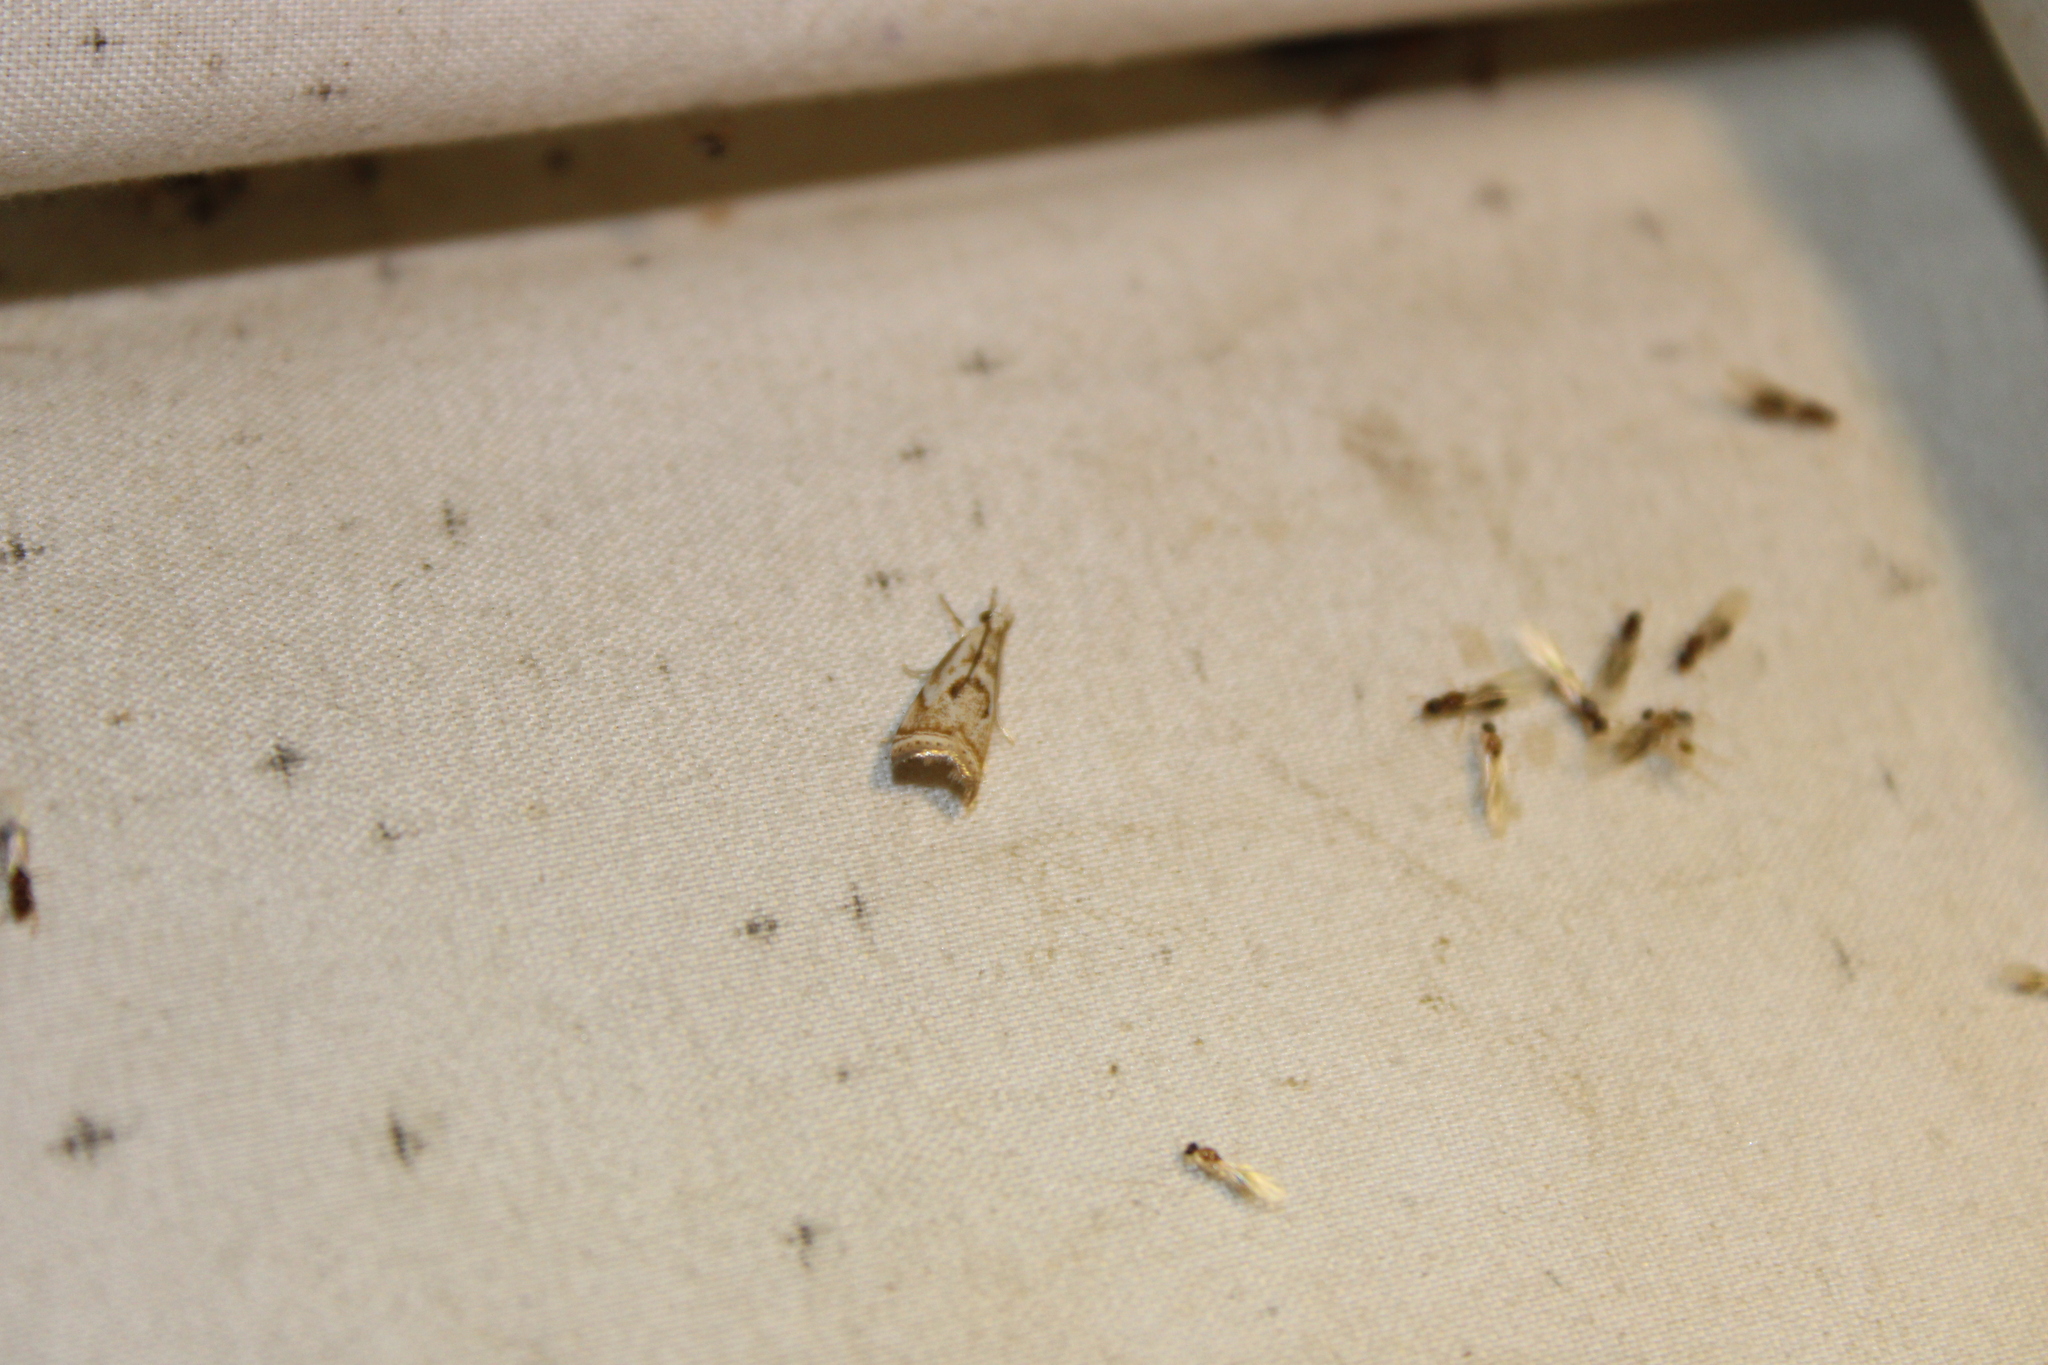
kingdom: Animalia
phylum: Arthropoda
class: Insecta
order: Lepidoptera
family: Crambidae
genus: Microcrambus
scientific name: Microcrambus elegans
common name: Elegant grass-veneer
